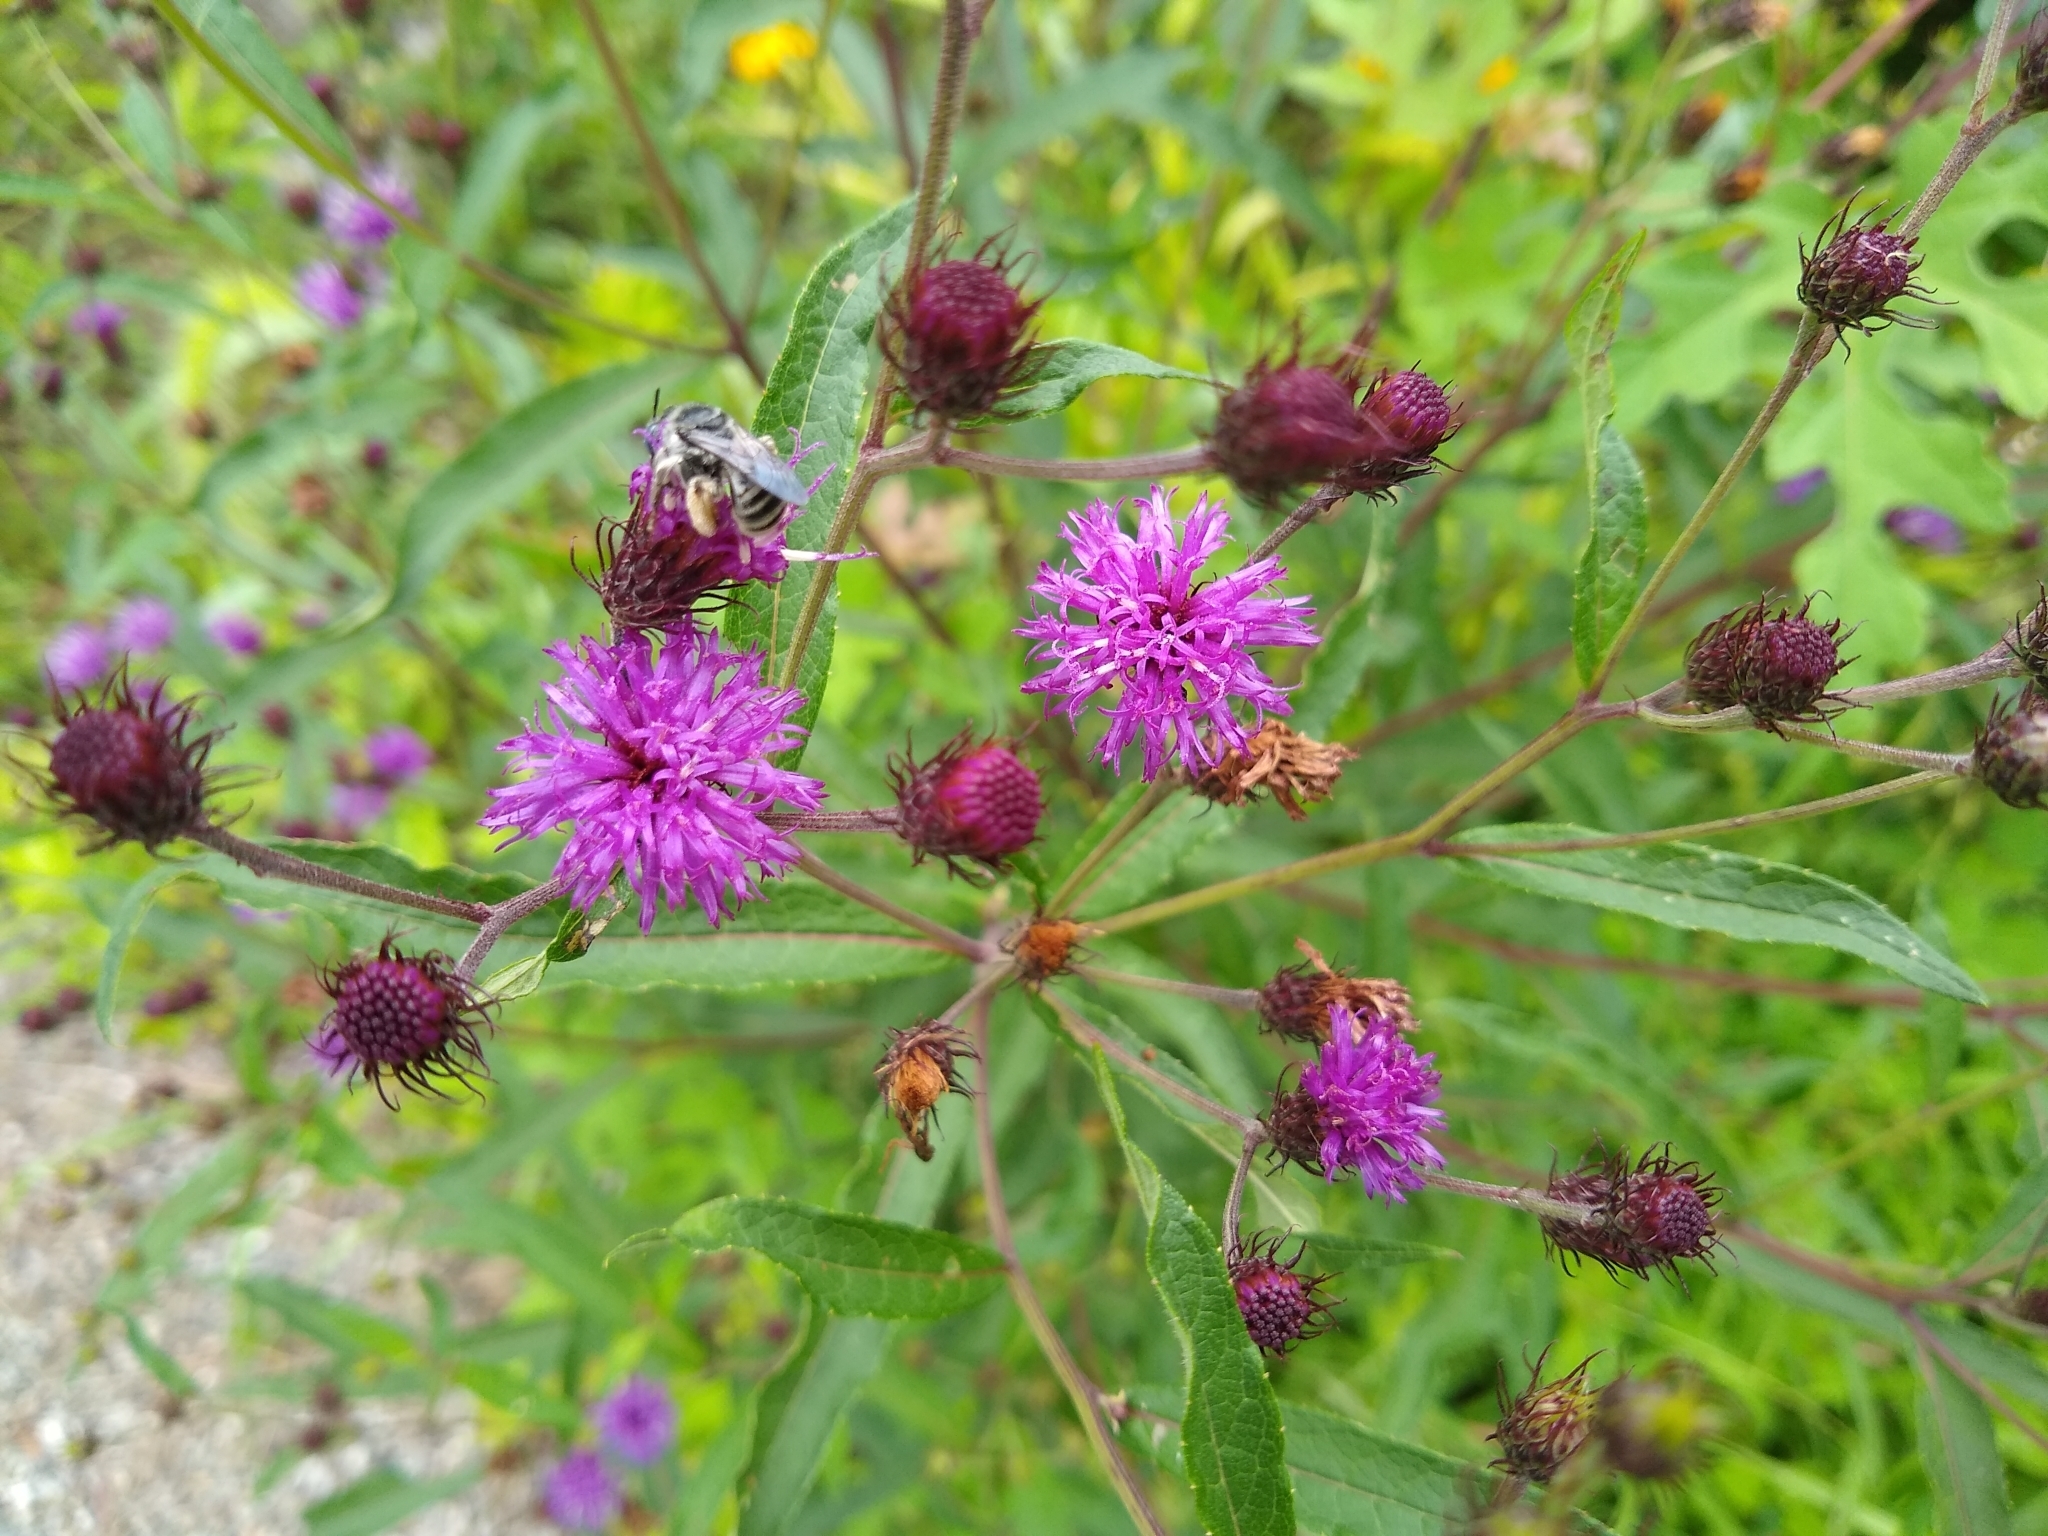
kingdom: Plantae
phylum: Tracheophyta
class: Magnoliopsida
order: Asterales
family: Asteraceae
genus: Vernonia
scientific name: Vernonia noveboracensis
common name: New york ironweed
